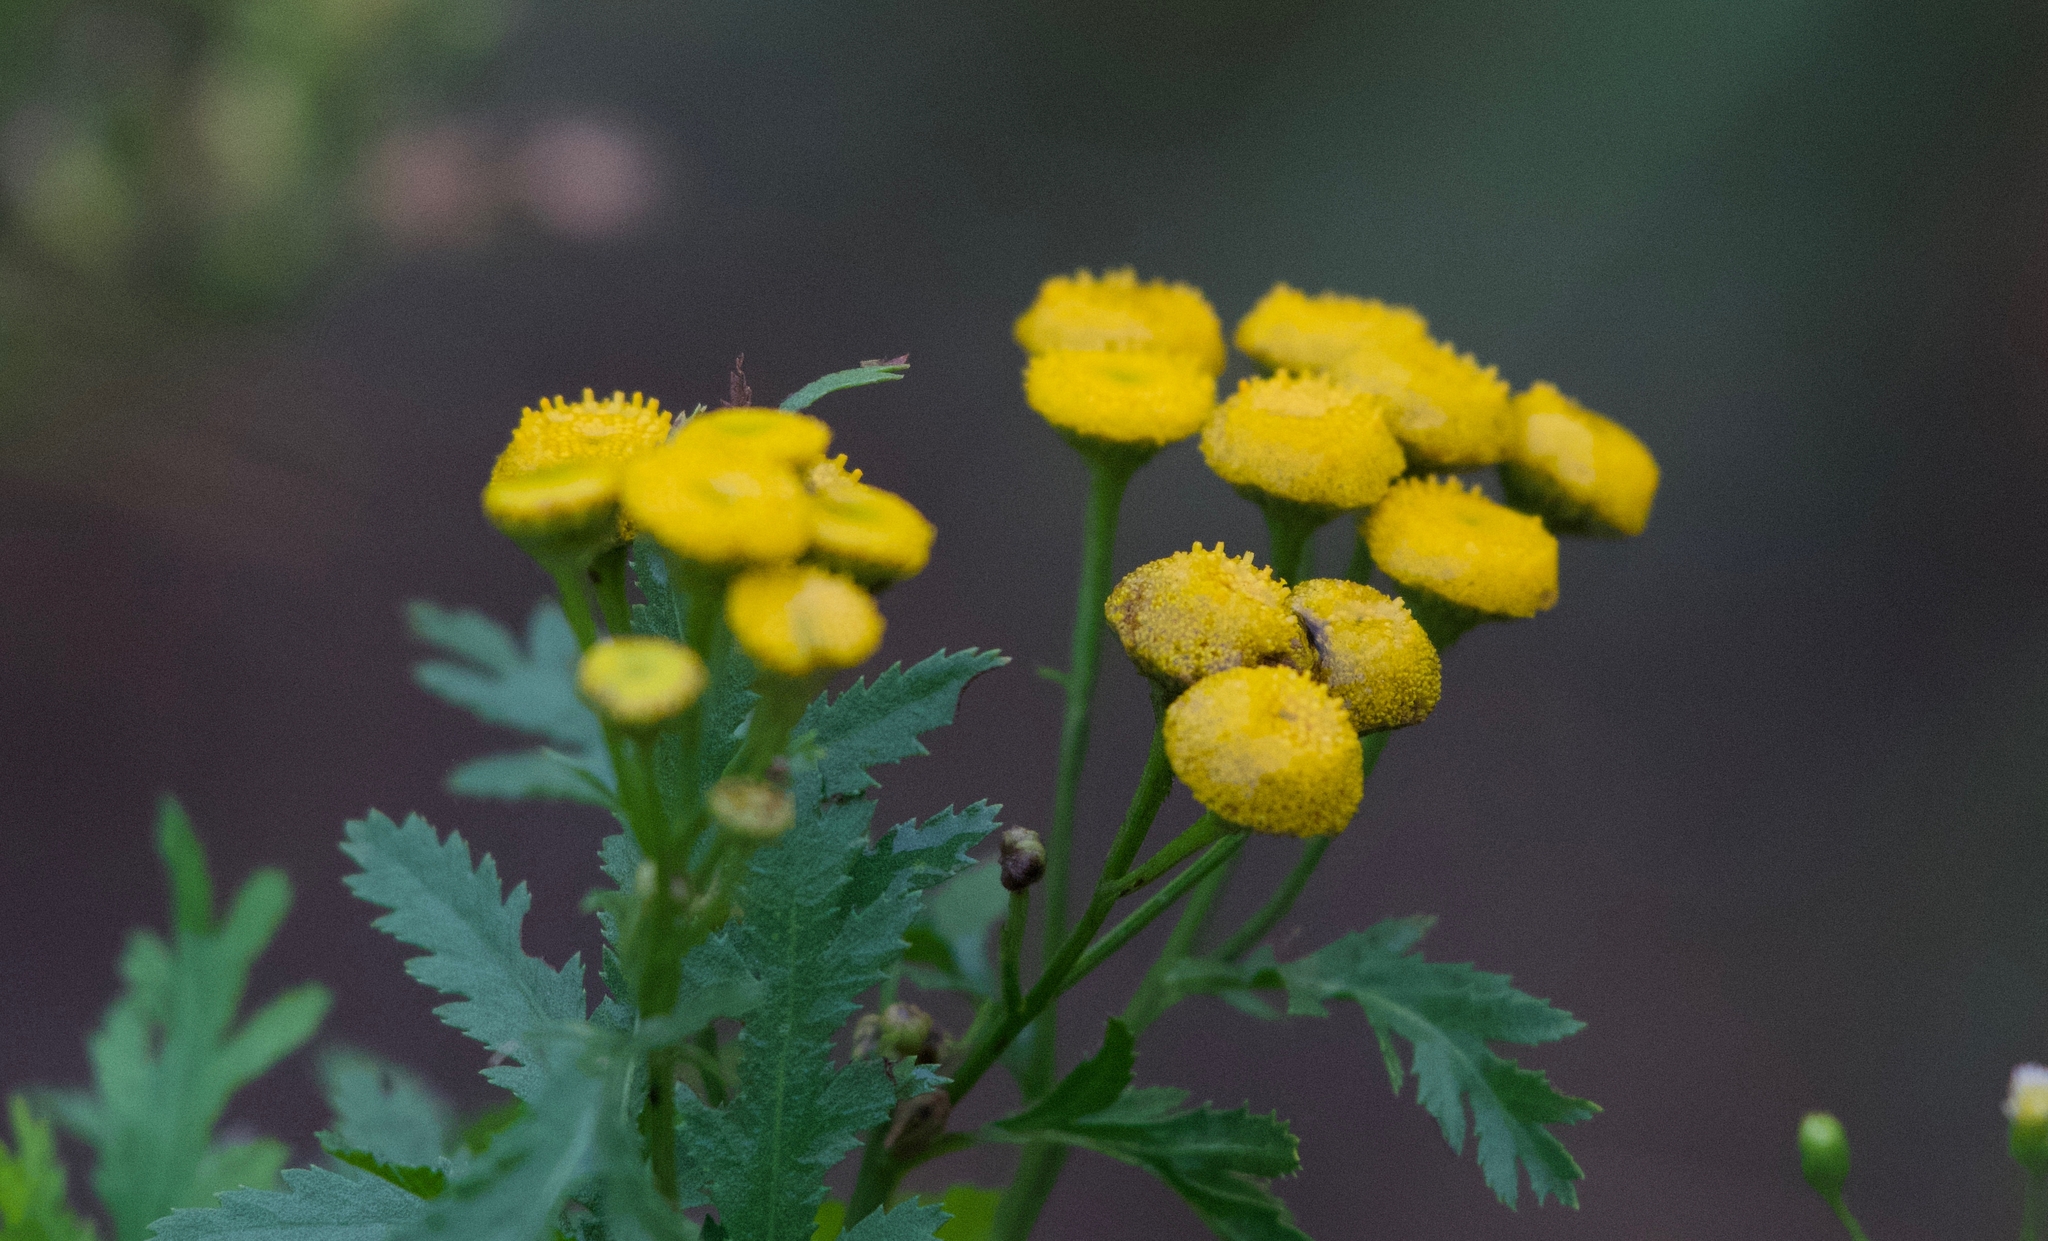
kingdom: Plantae
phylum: Tracheophyta
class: Magnoliopsida
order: Asterales
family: Asteraceae
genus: Tanacetum
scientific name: Tanacetum vulgare
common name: Common tansy
